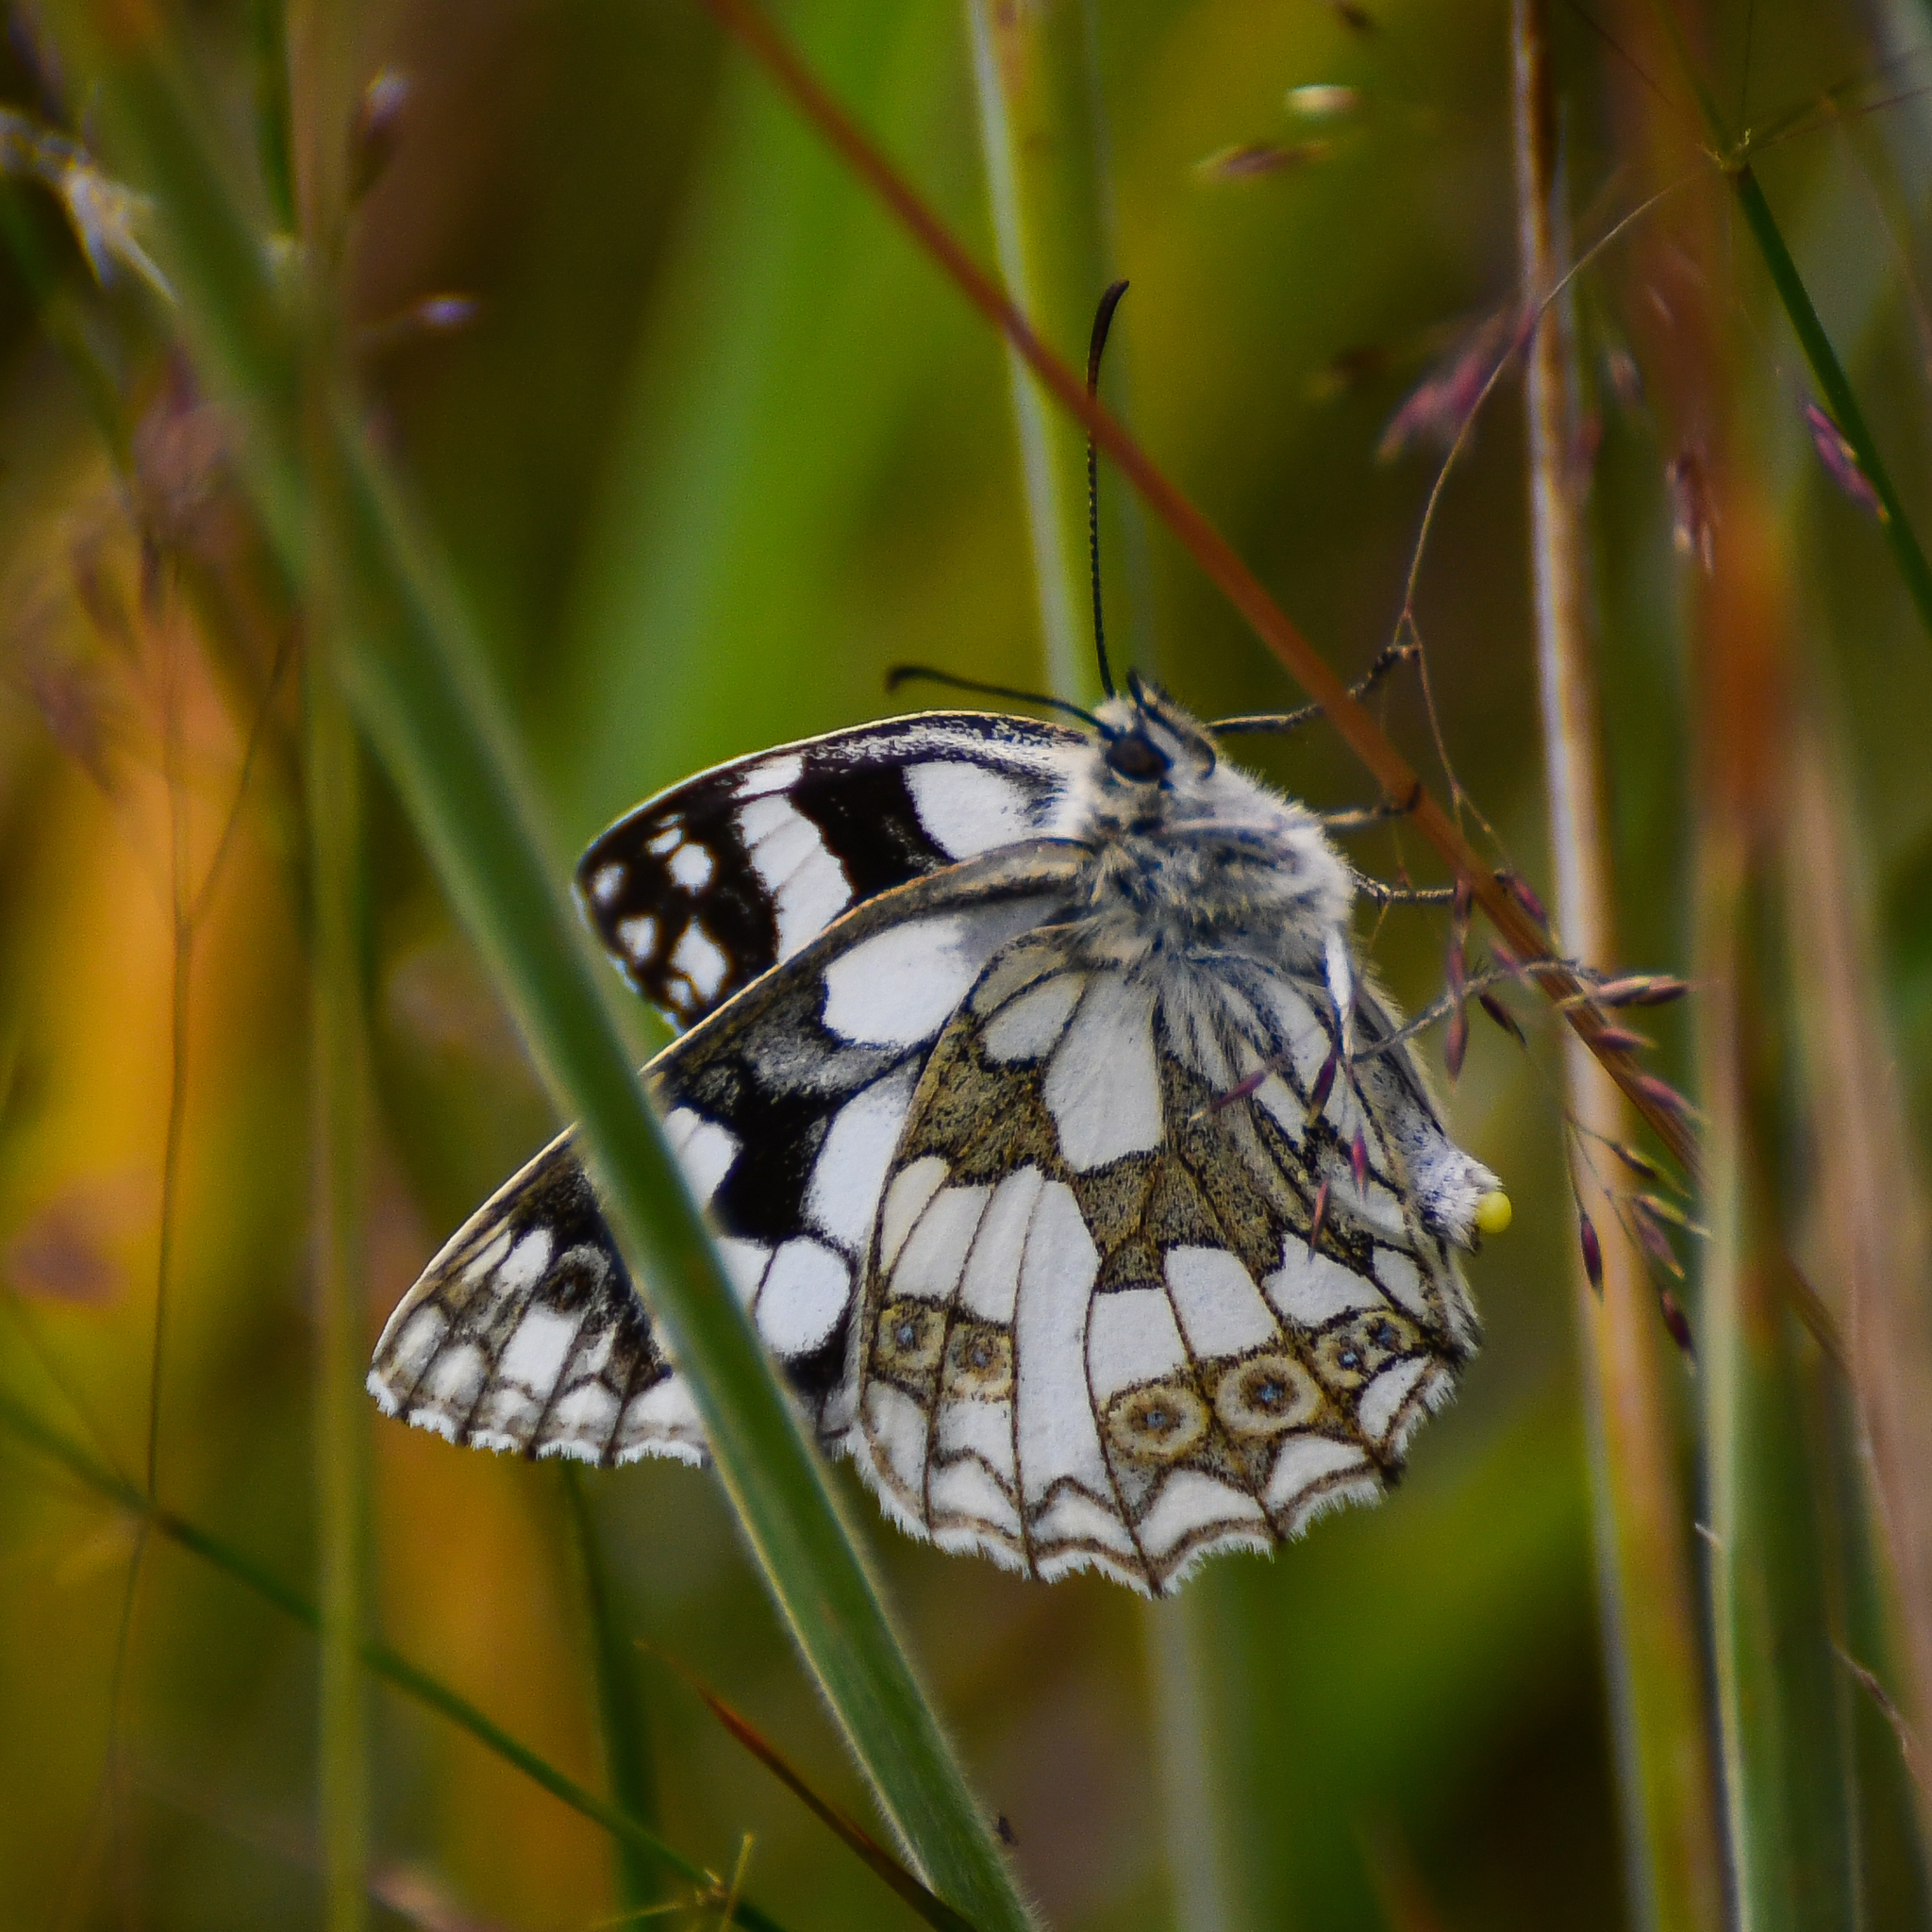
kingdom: Animalia
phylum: Arthropoda
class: Insecta
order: Lepidoptera
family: Nymphalidae
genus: Melanargia
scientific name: Melanargia galathea
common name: Marbled white
